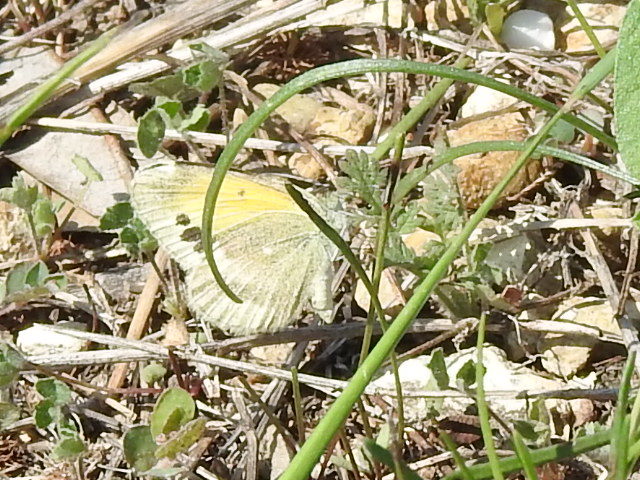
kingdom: Animalia
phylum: Arthropoda
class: Insecta
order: Lepidoptera
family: Pieridae
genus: Nathalis
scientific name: Nathalis iole
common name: Dainty sulphur
